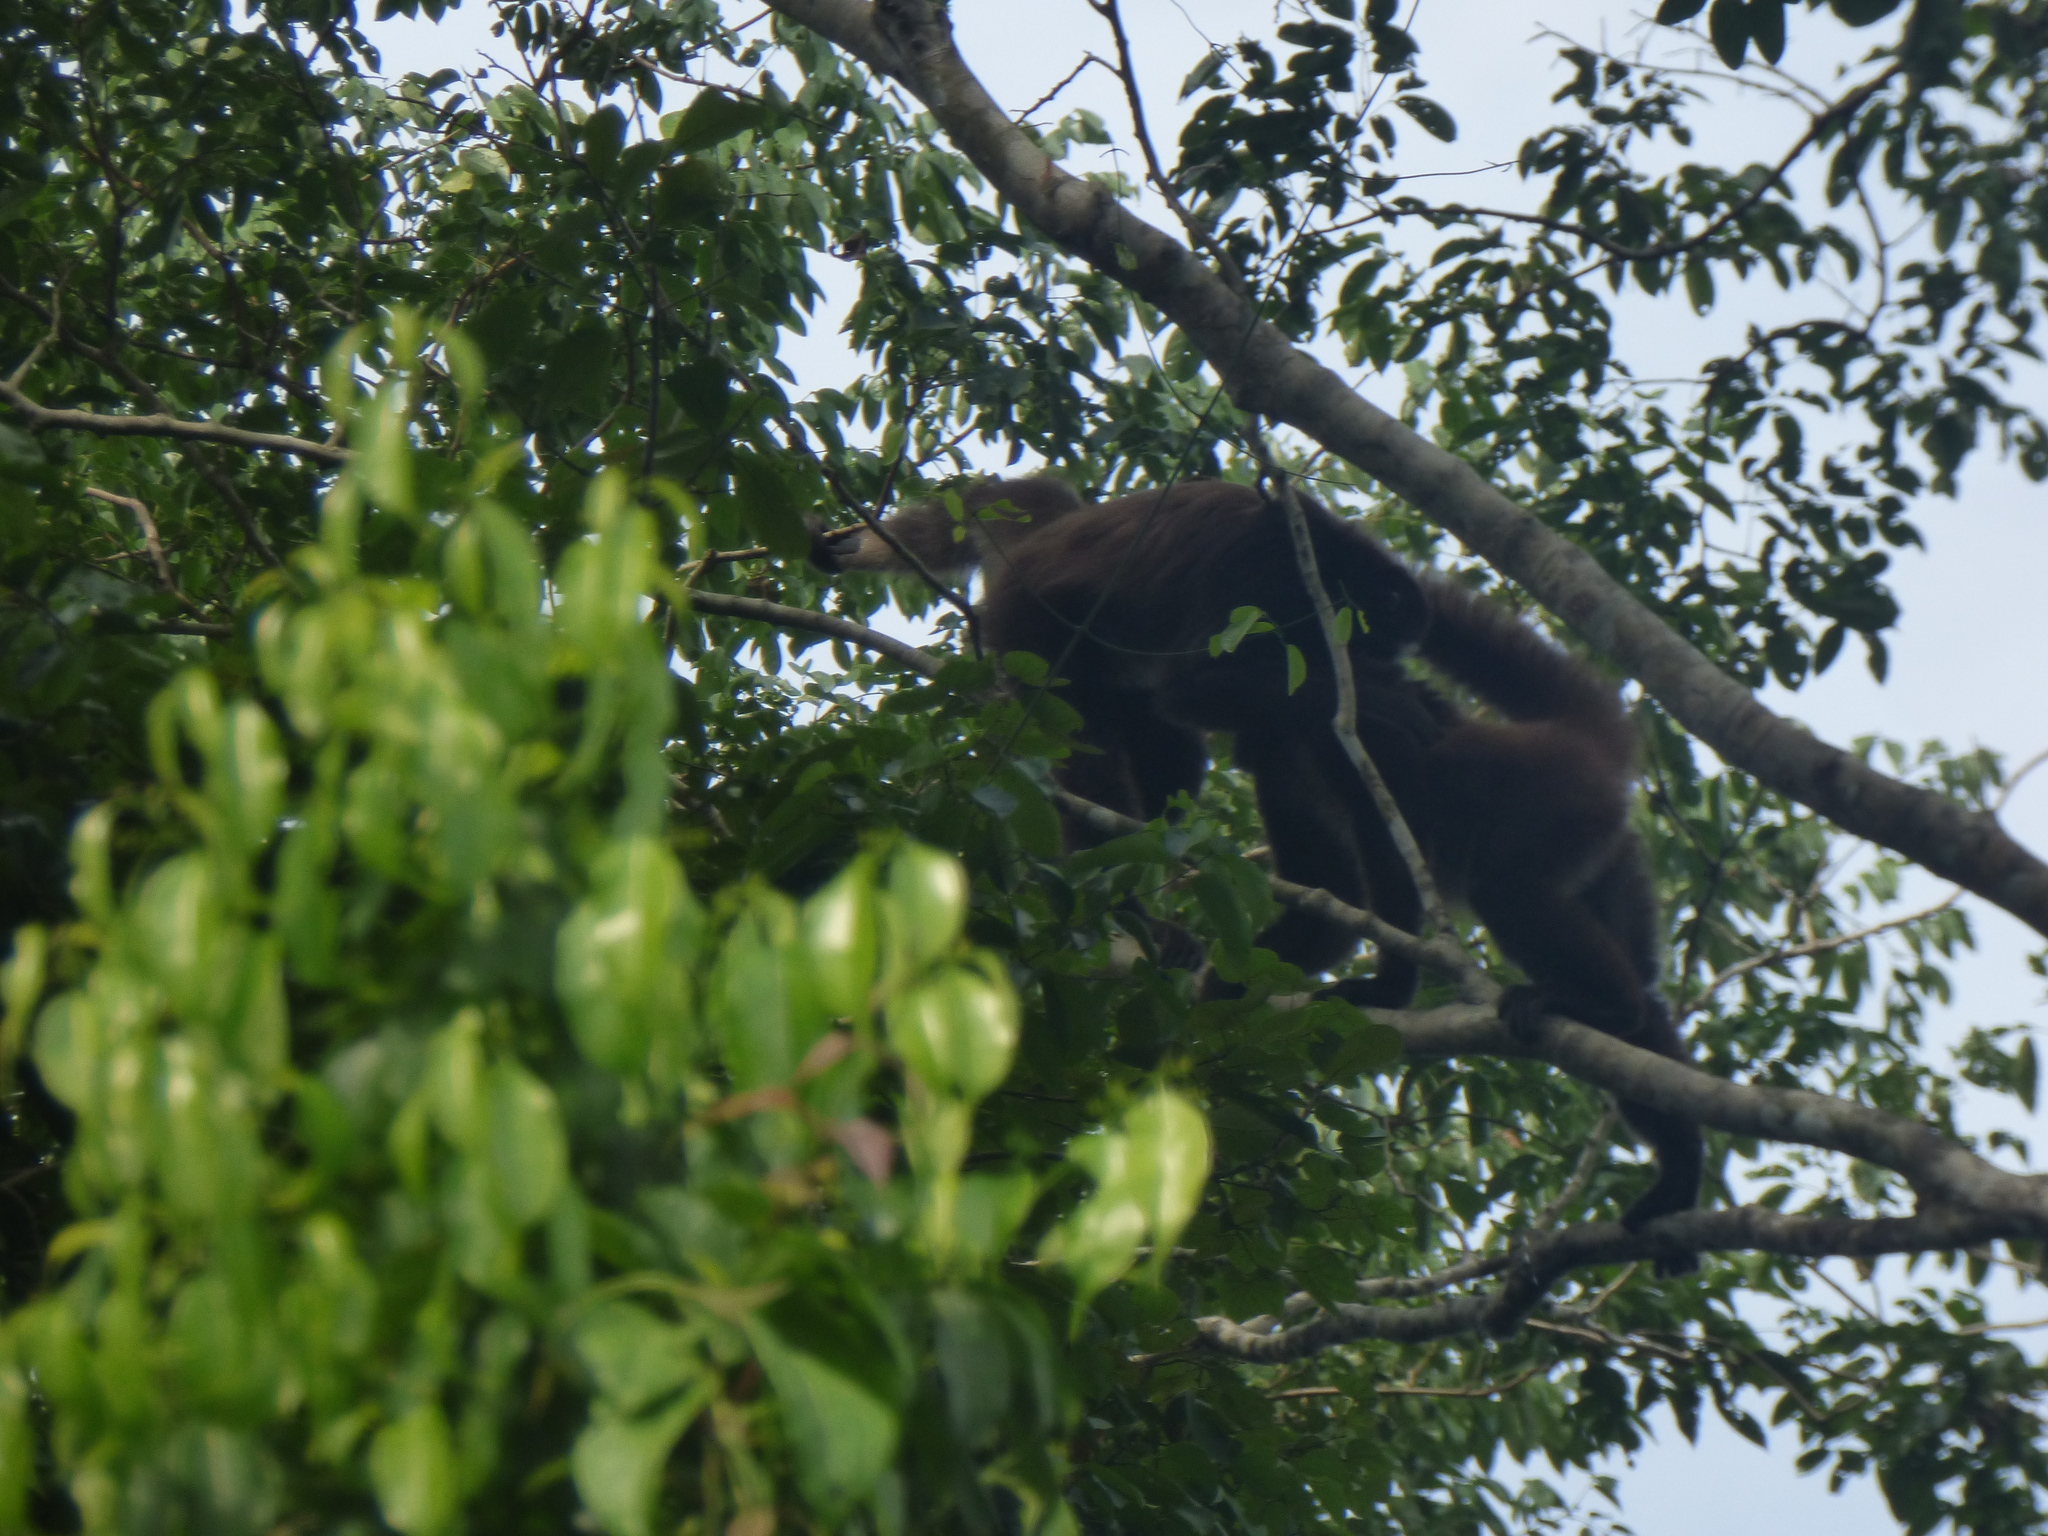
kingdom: Animalia
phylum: Chordata
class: Mammalia
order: Primates
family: Atelidae
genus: Ateles
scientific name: Ateles hybridus
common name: Brown spider monkey
